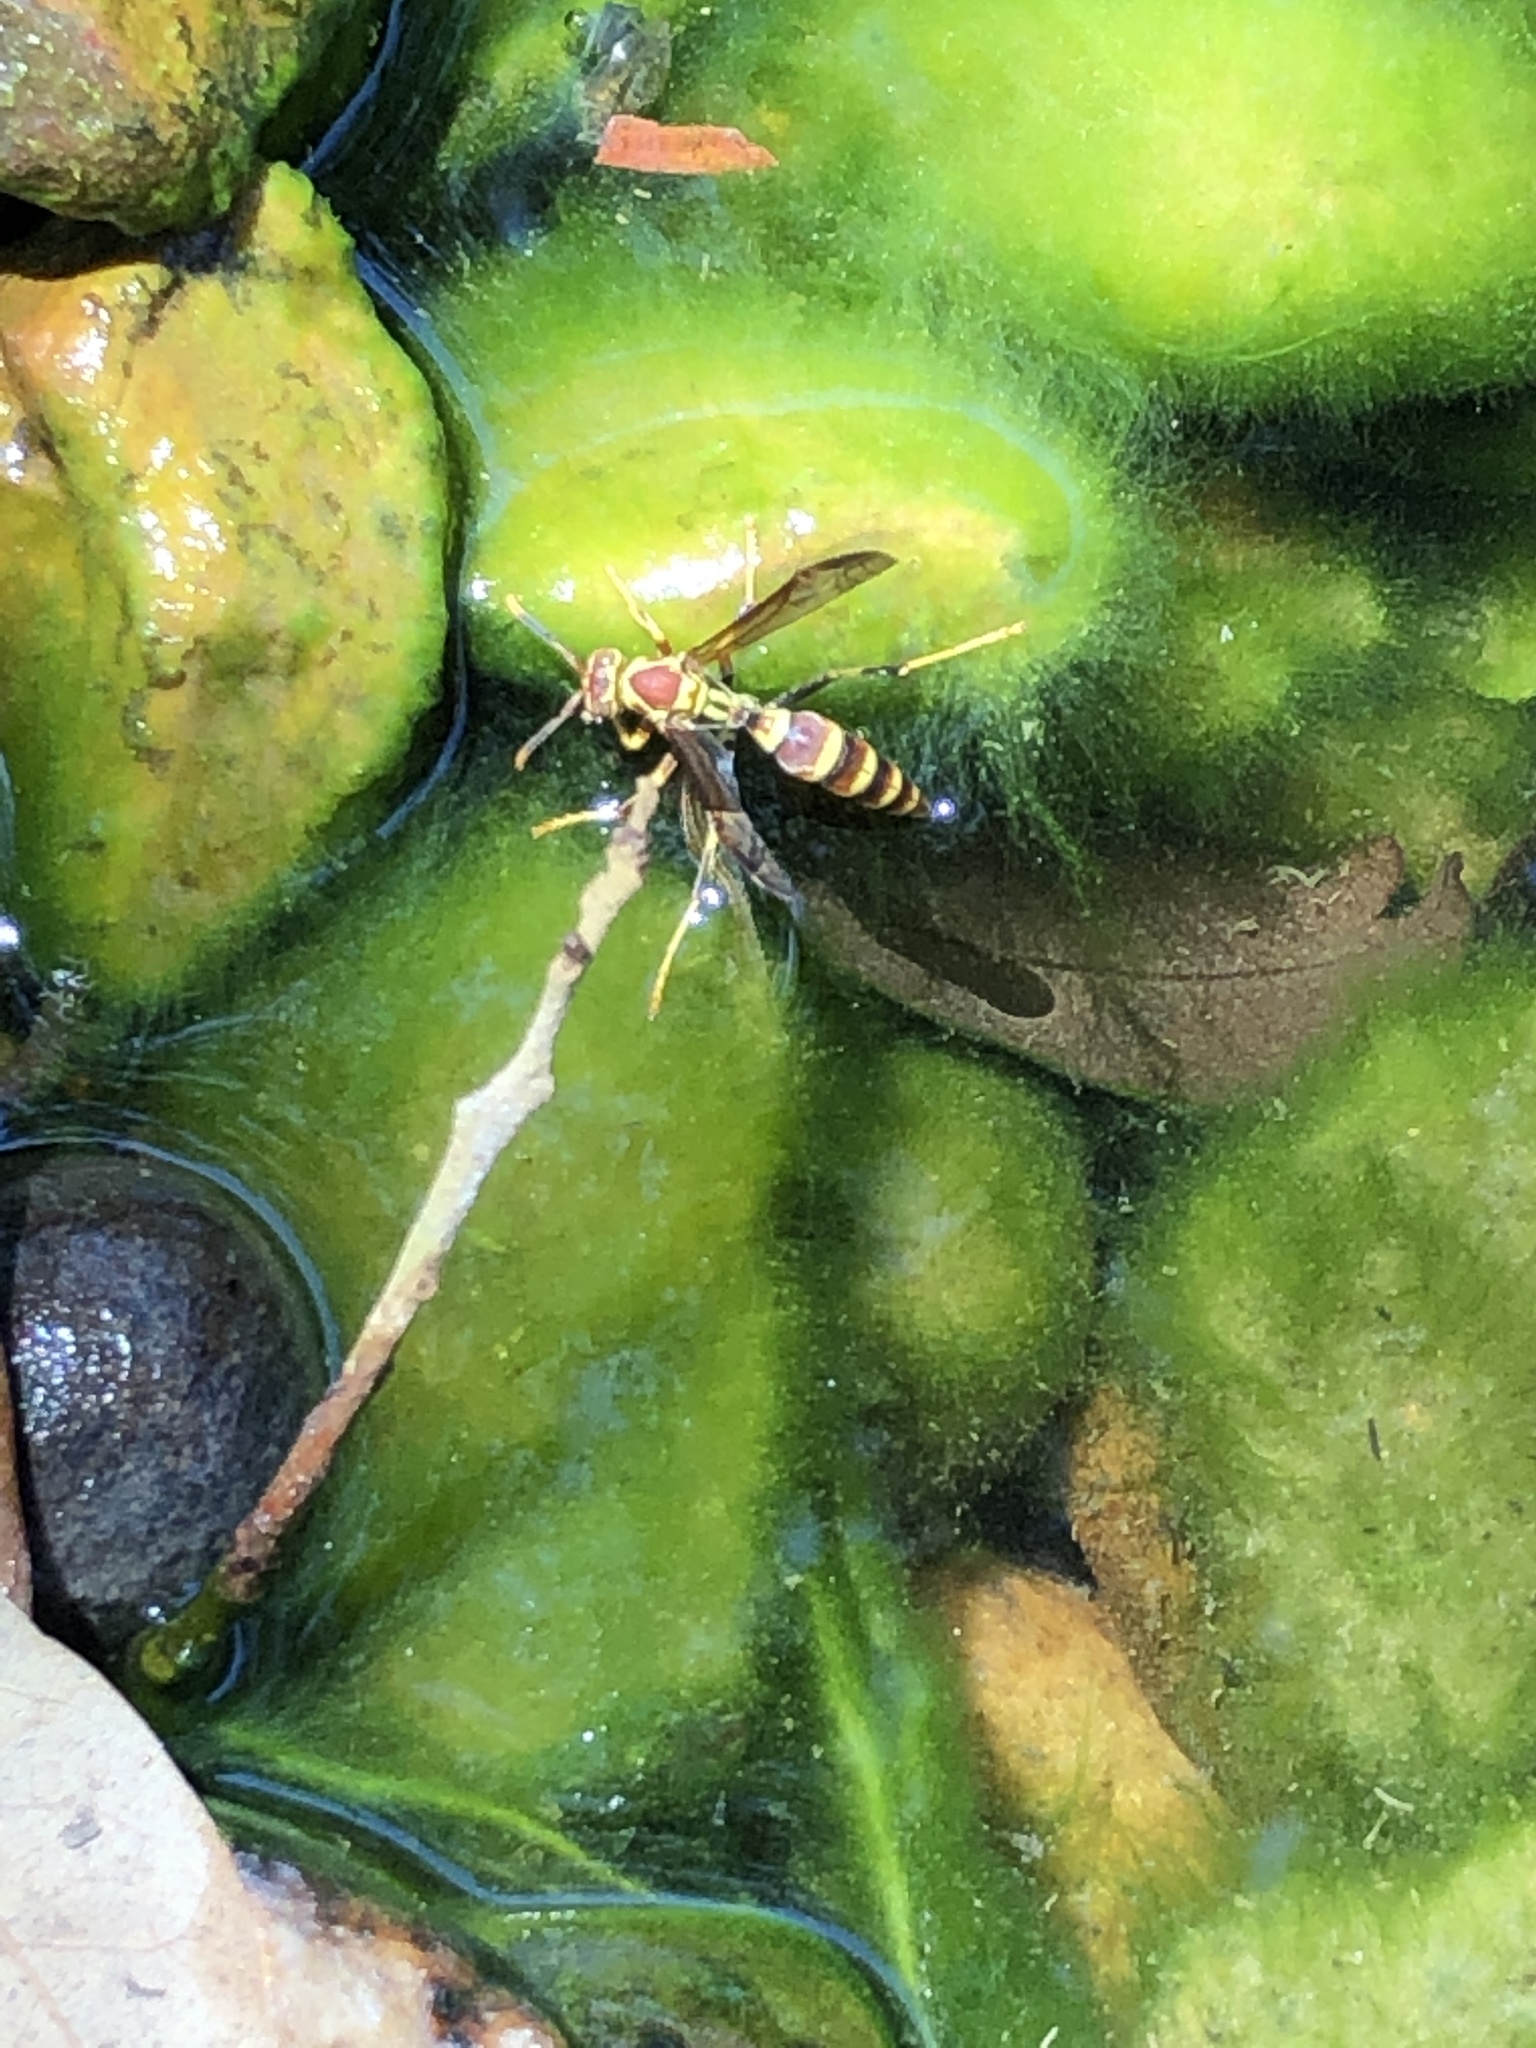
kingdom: Animalia
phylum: Arthropoda
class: Insecta
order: Hymenoptera
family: Eumenidae
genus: Polistes
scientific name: Polistes exclamans
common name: Paper wasp
